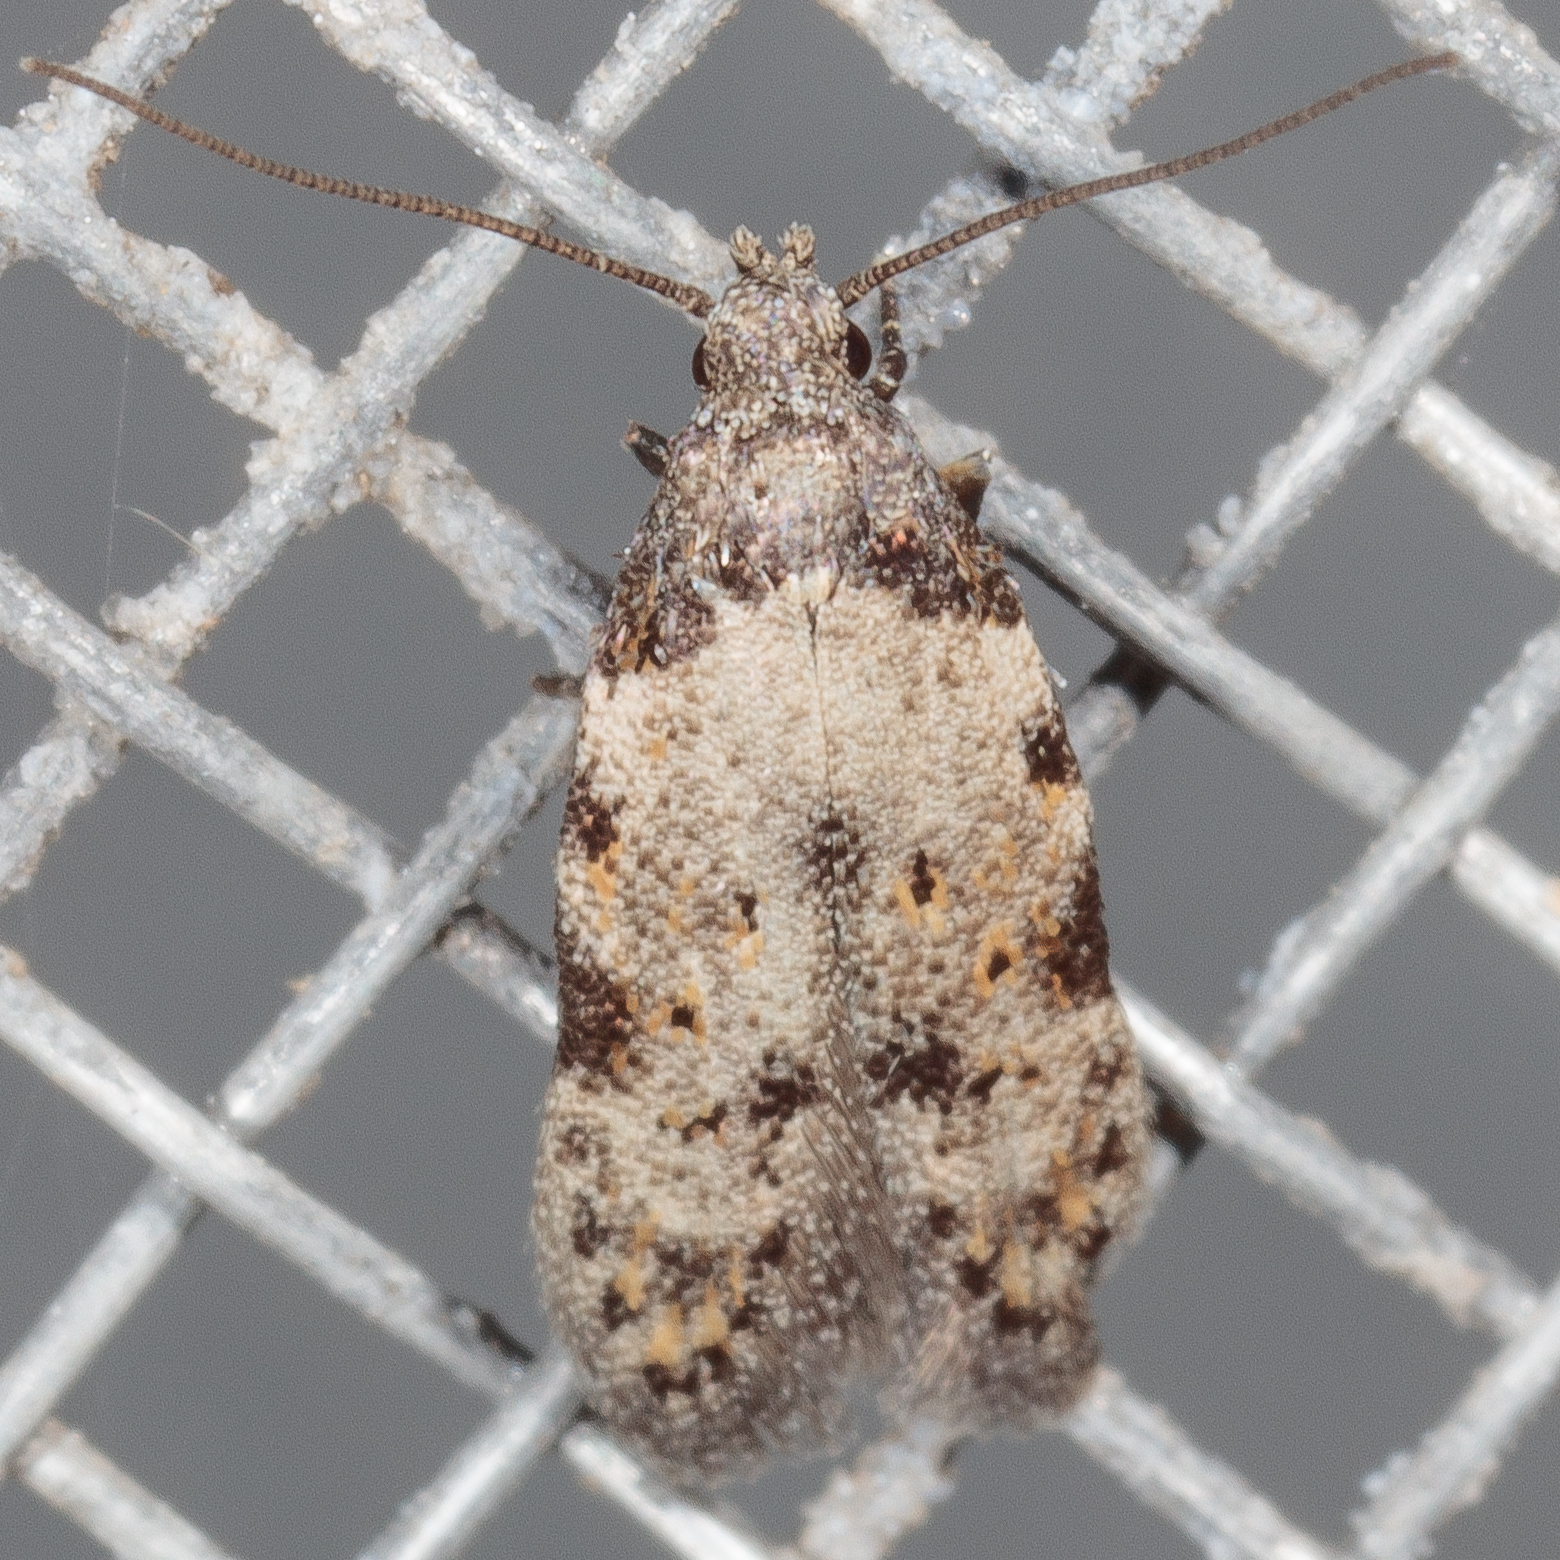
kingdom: Animalia
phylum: Arthropoda
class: Insecta
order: Lepidoptera
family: Autostichidae
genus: Taygete
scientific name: Taygete attributella
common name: Triangle-marked twirler moth
